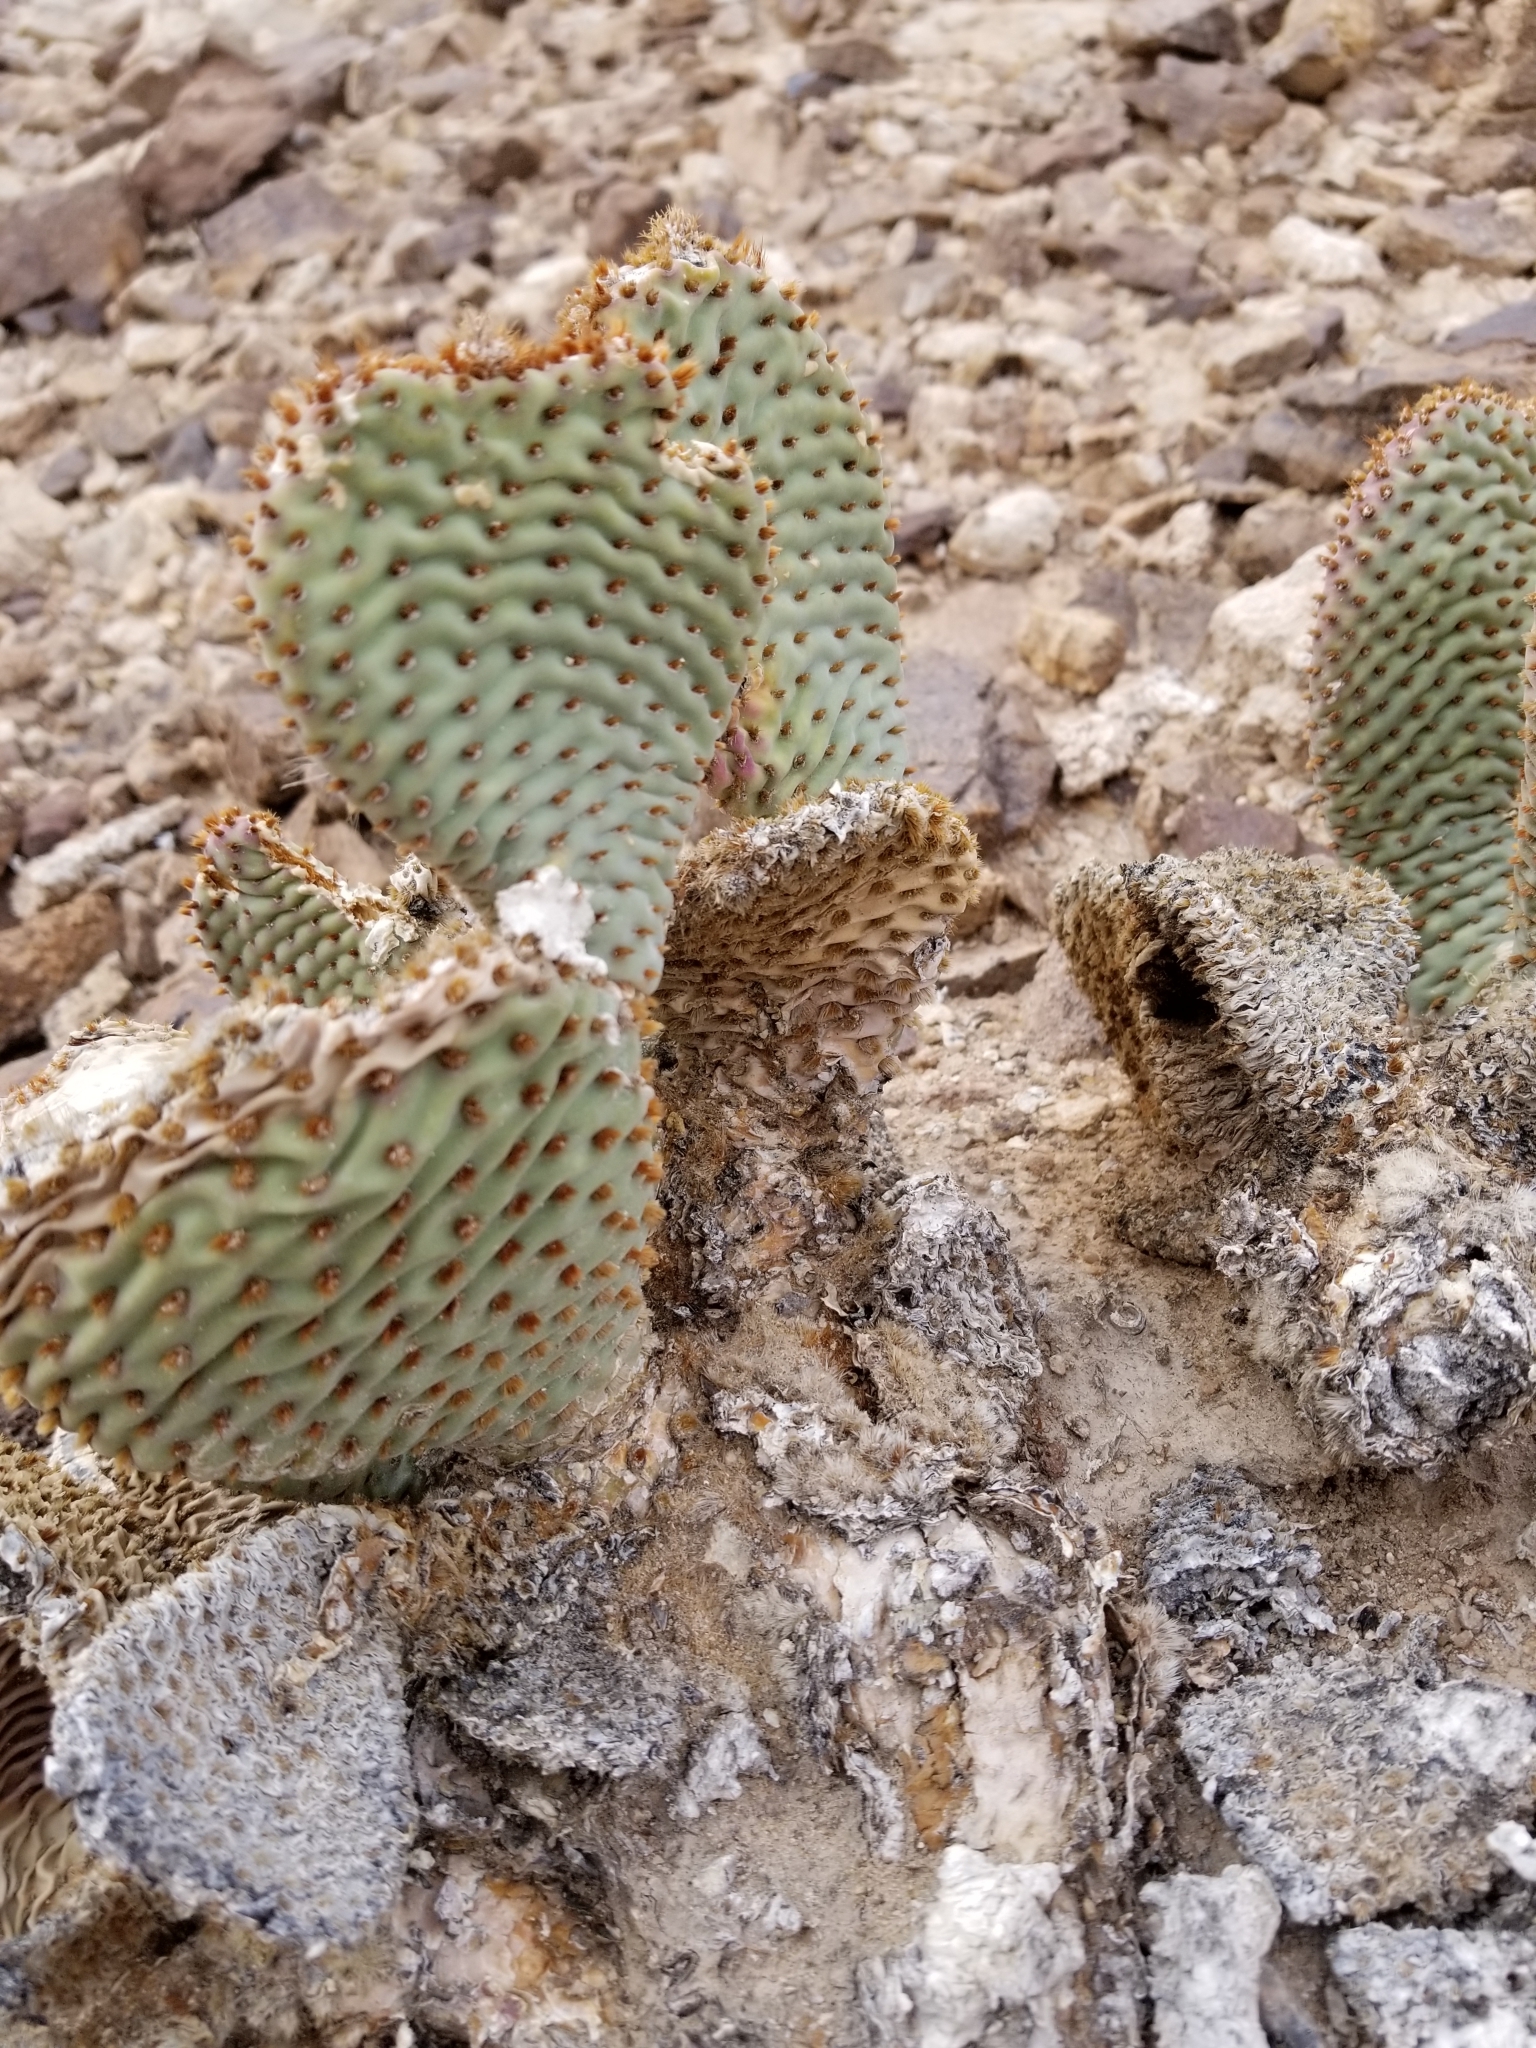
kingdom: Plantae
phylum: Tracheophyta
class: Magnoliopsida
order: Caryophyllales
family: Cactaceae
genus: Opuntia
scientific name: Opuntia basilaris
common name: Beavertail prickly-pear
